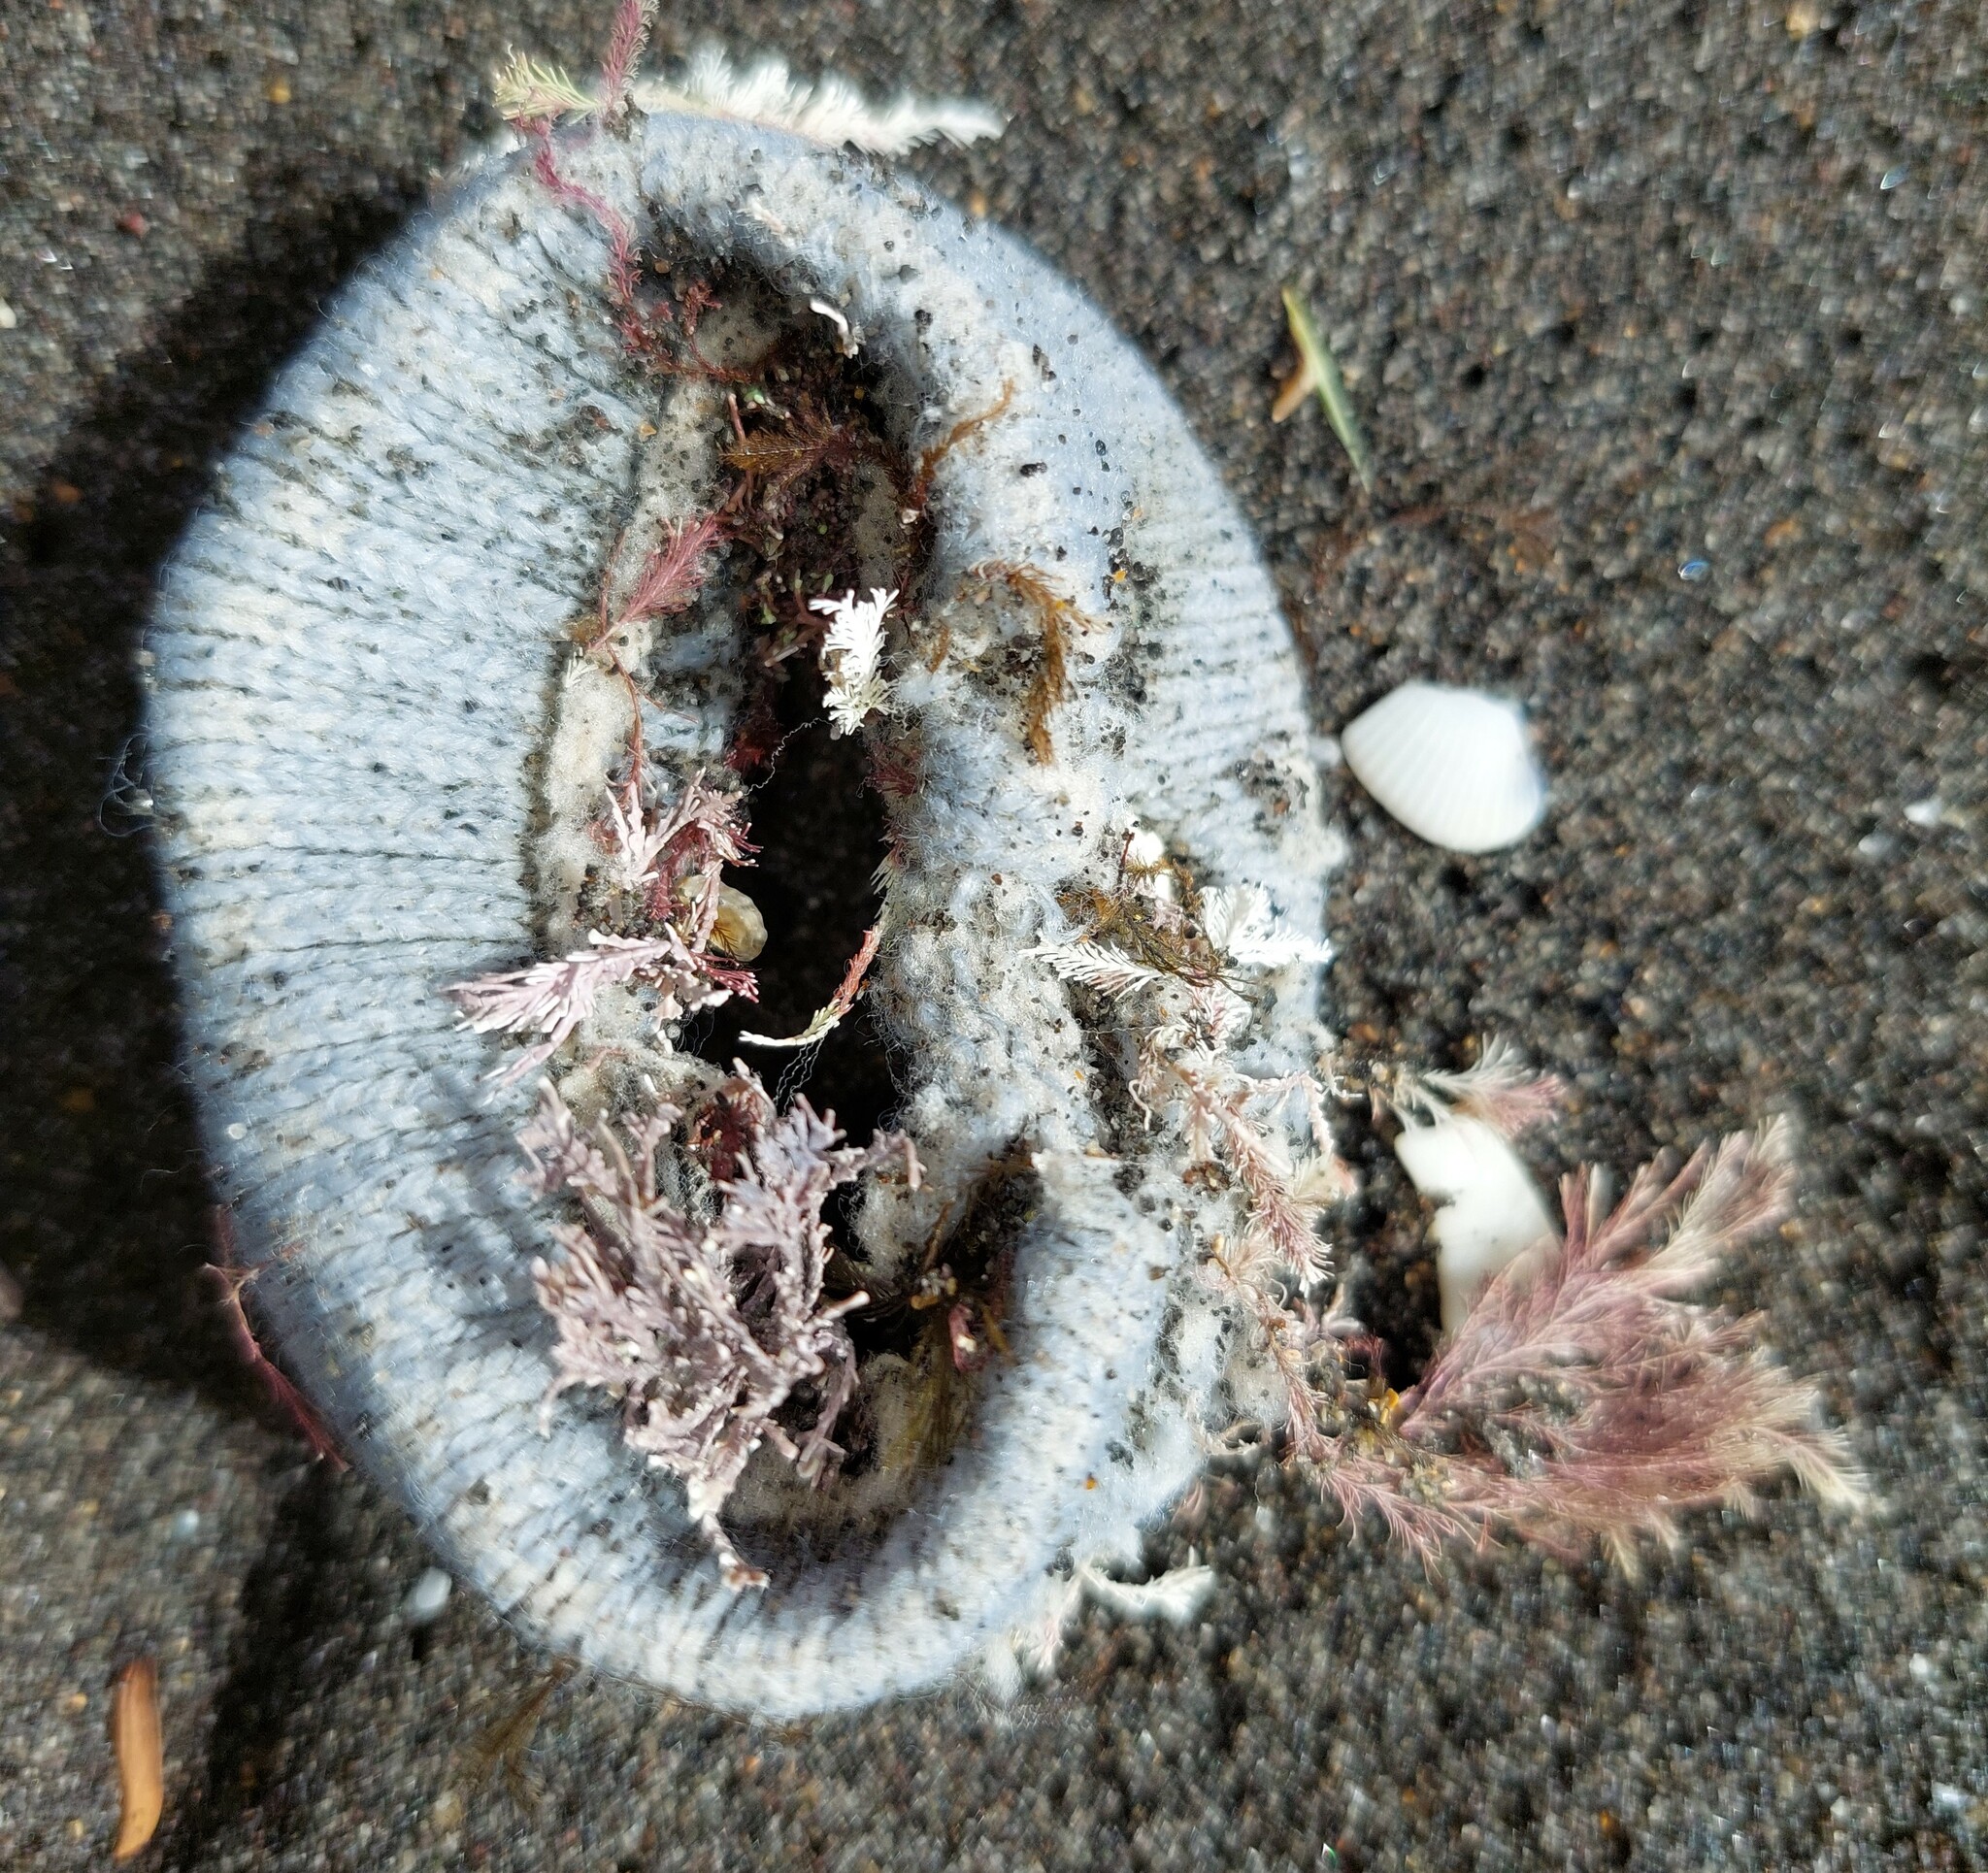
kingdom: Plantae
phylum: Rhodophyta
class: Florideophyceae
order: Corallinales
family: Corallinaceae
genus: Jania
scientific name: Jania rosea
